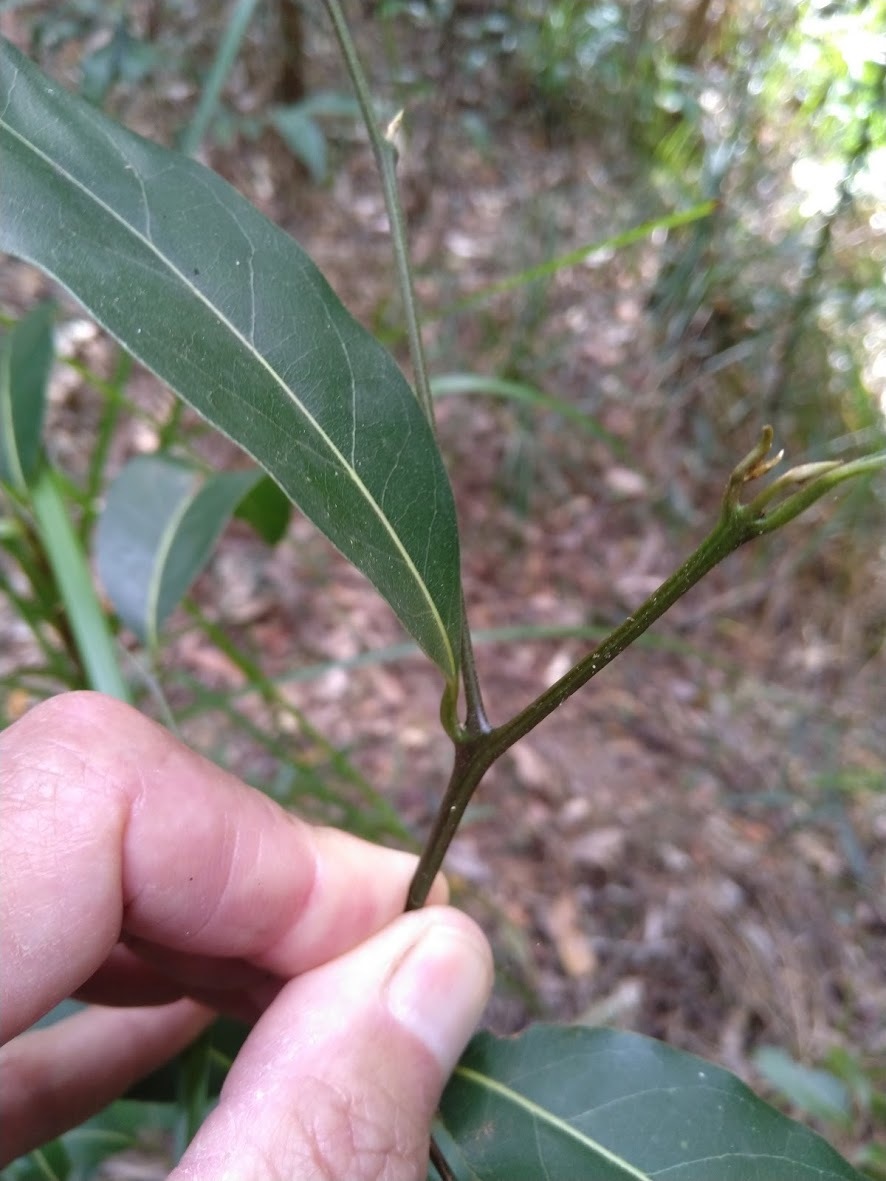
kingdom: Plantae
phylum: Tracheophyta
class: Magnoliopsida
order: Laurales
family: Lauraceae
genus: Cryptocarya
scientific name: Cryptocarya glaucescens
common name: Bolly-laurel
